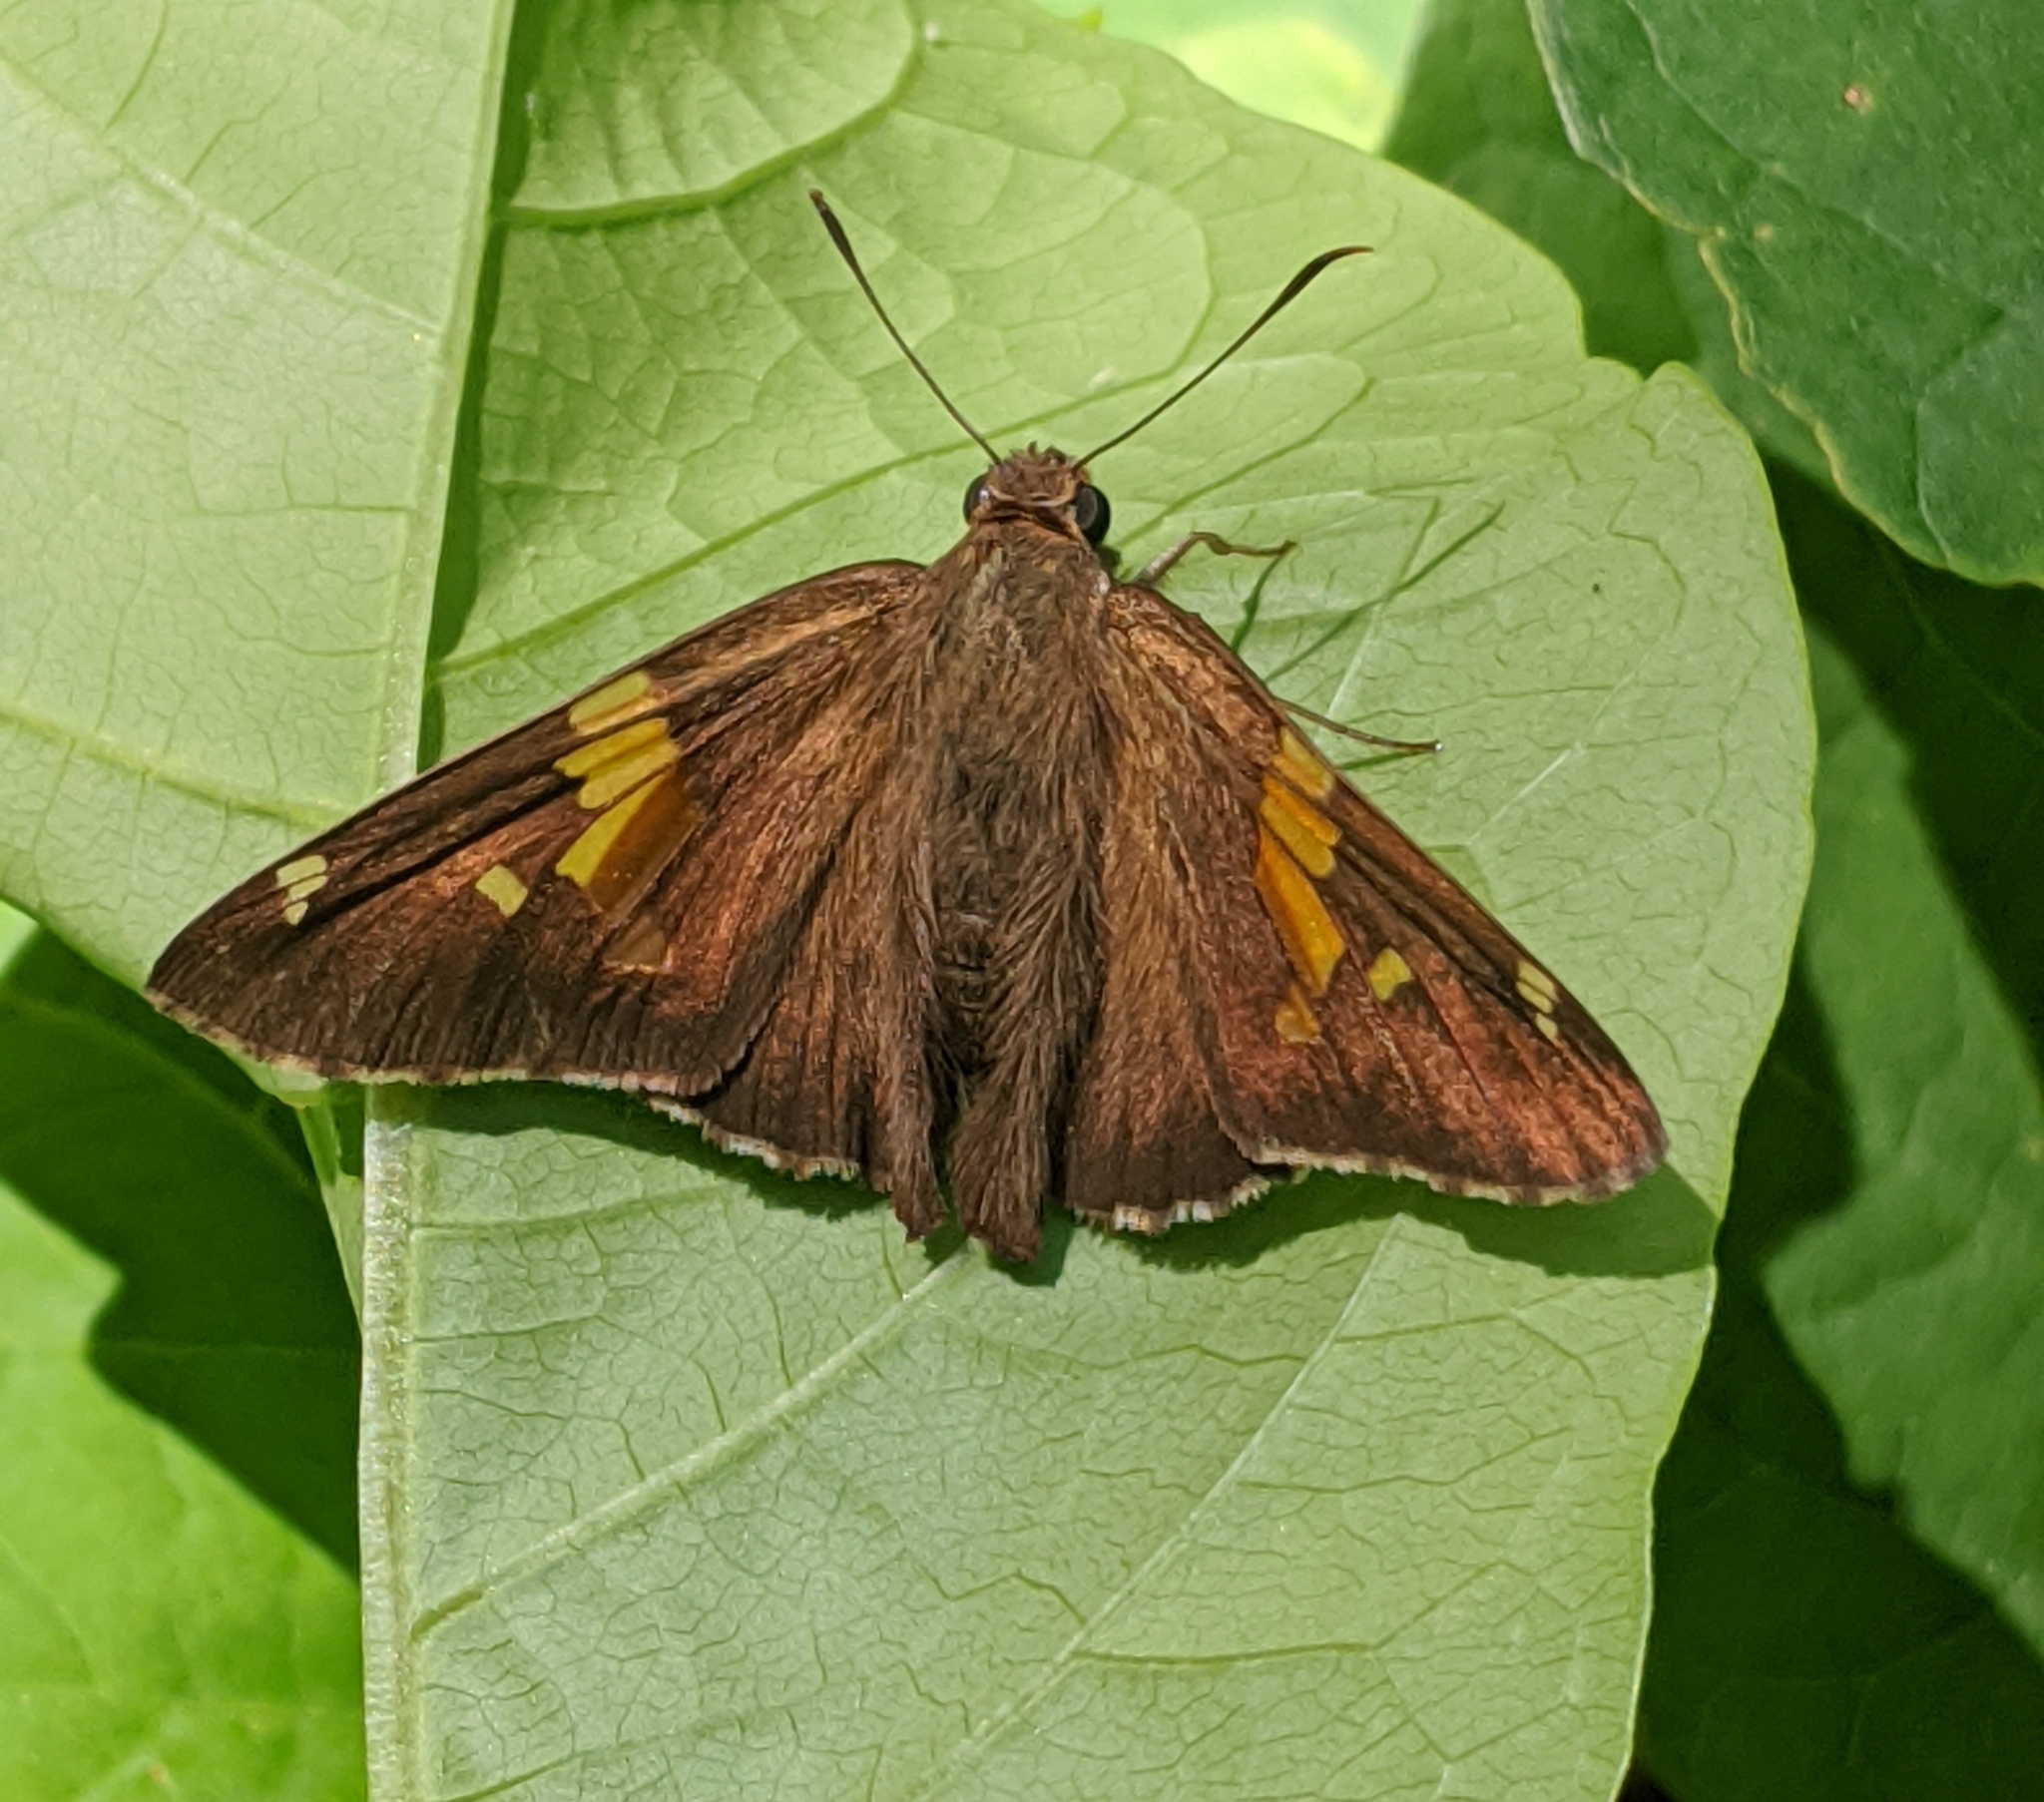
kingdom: Animalia
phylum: Arthropoda
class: Insecta
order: Lepidoptera
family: Hesperiidae
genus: Epargyreus
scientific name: Epargyreus clarus
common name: Silver-spotted skipper
